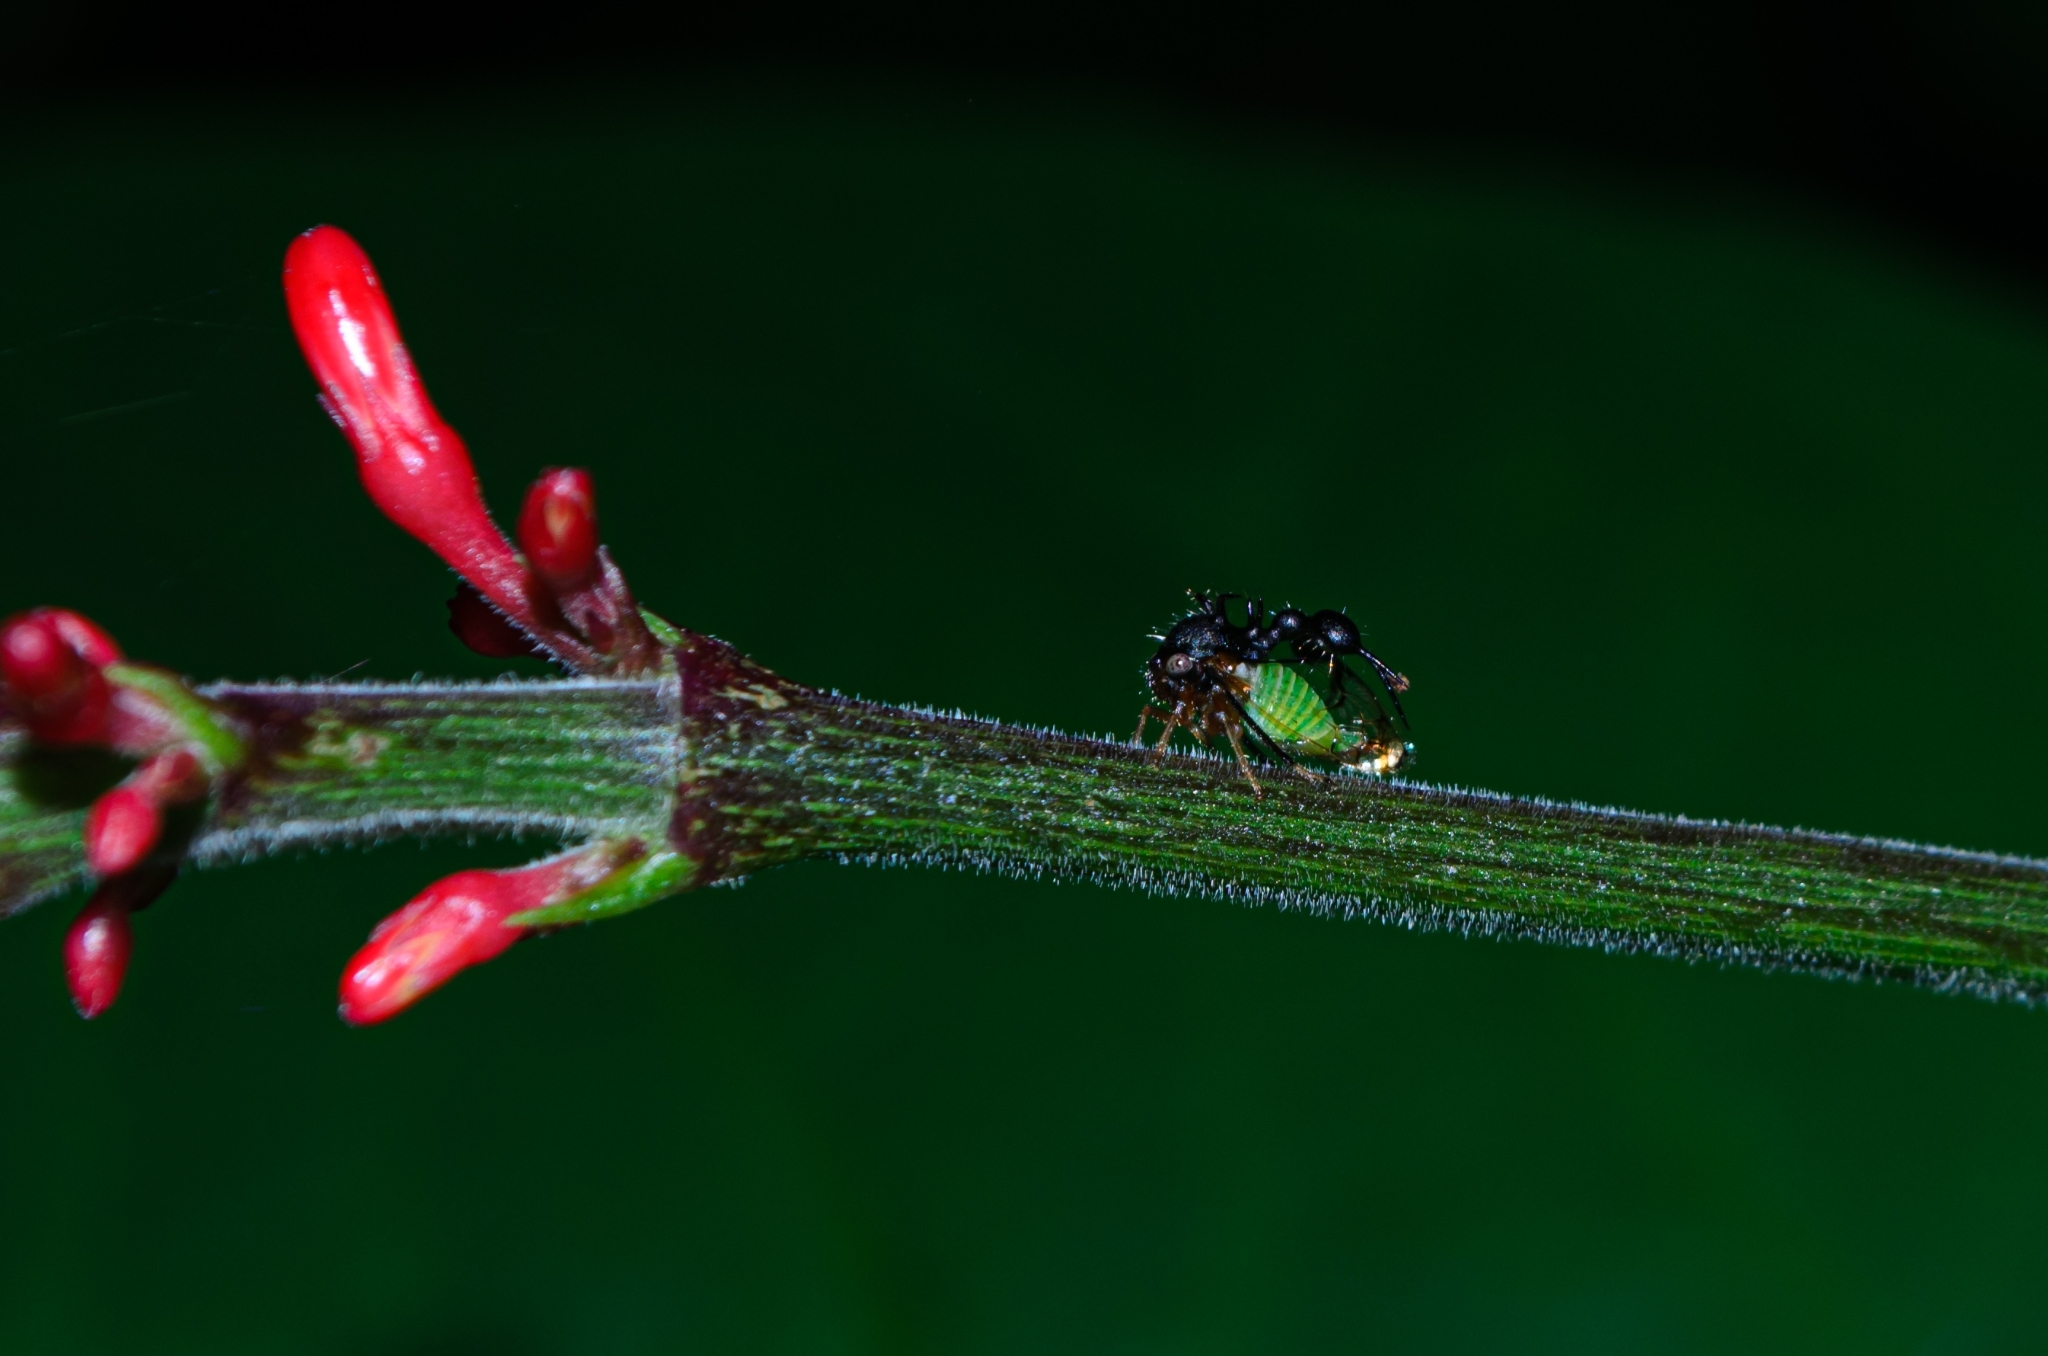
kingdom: Animalia
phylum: Arthropoda
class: Insecta
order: Hemiptera
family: Membracidae
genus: Cyphonia
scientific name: Cyphonia clavata
